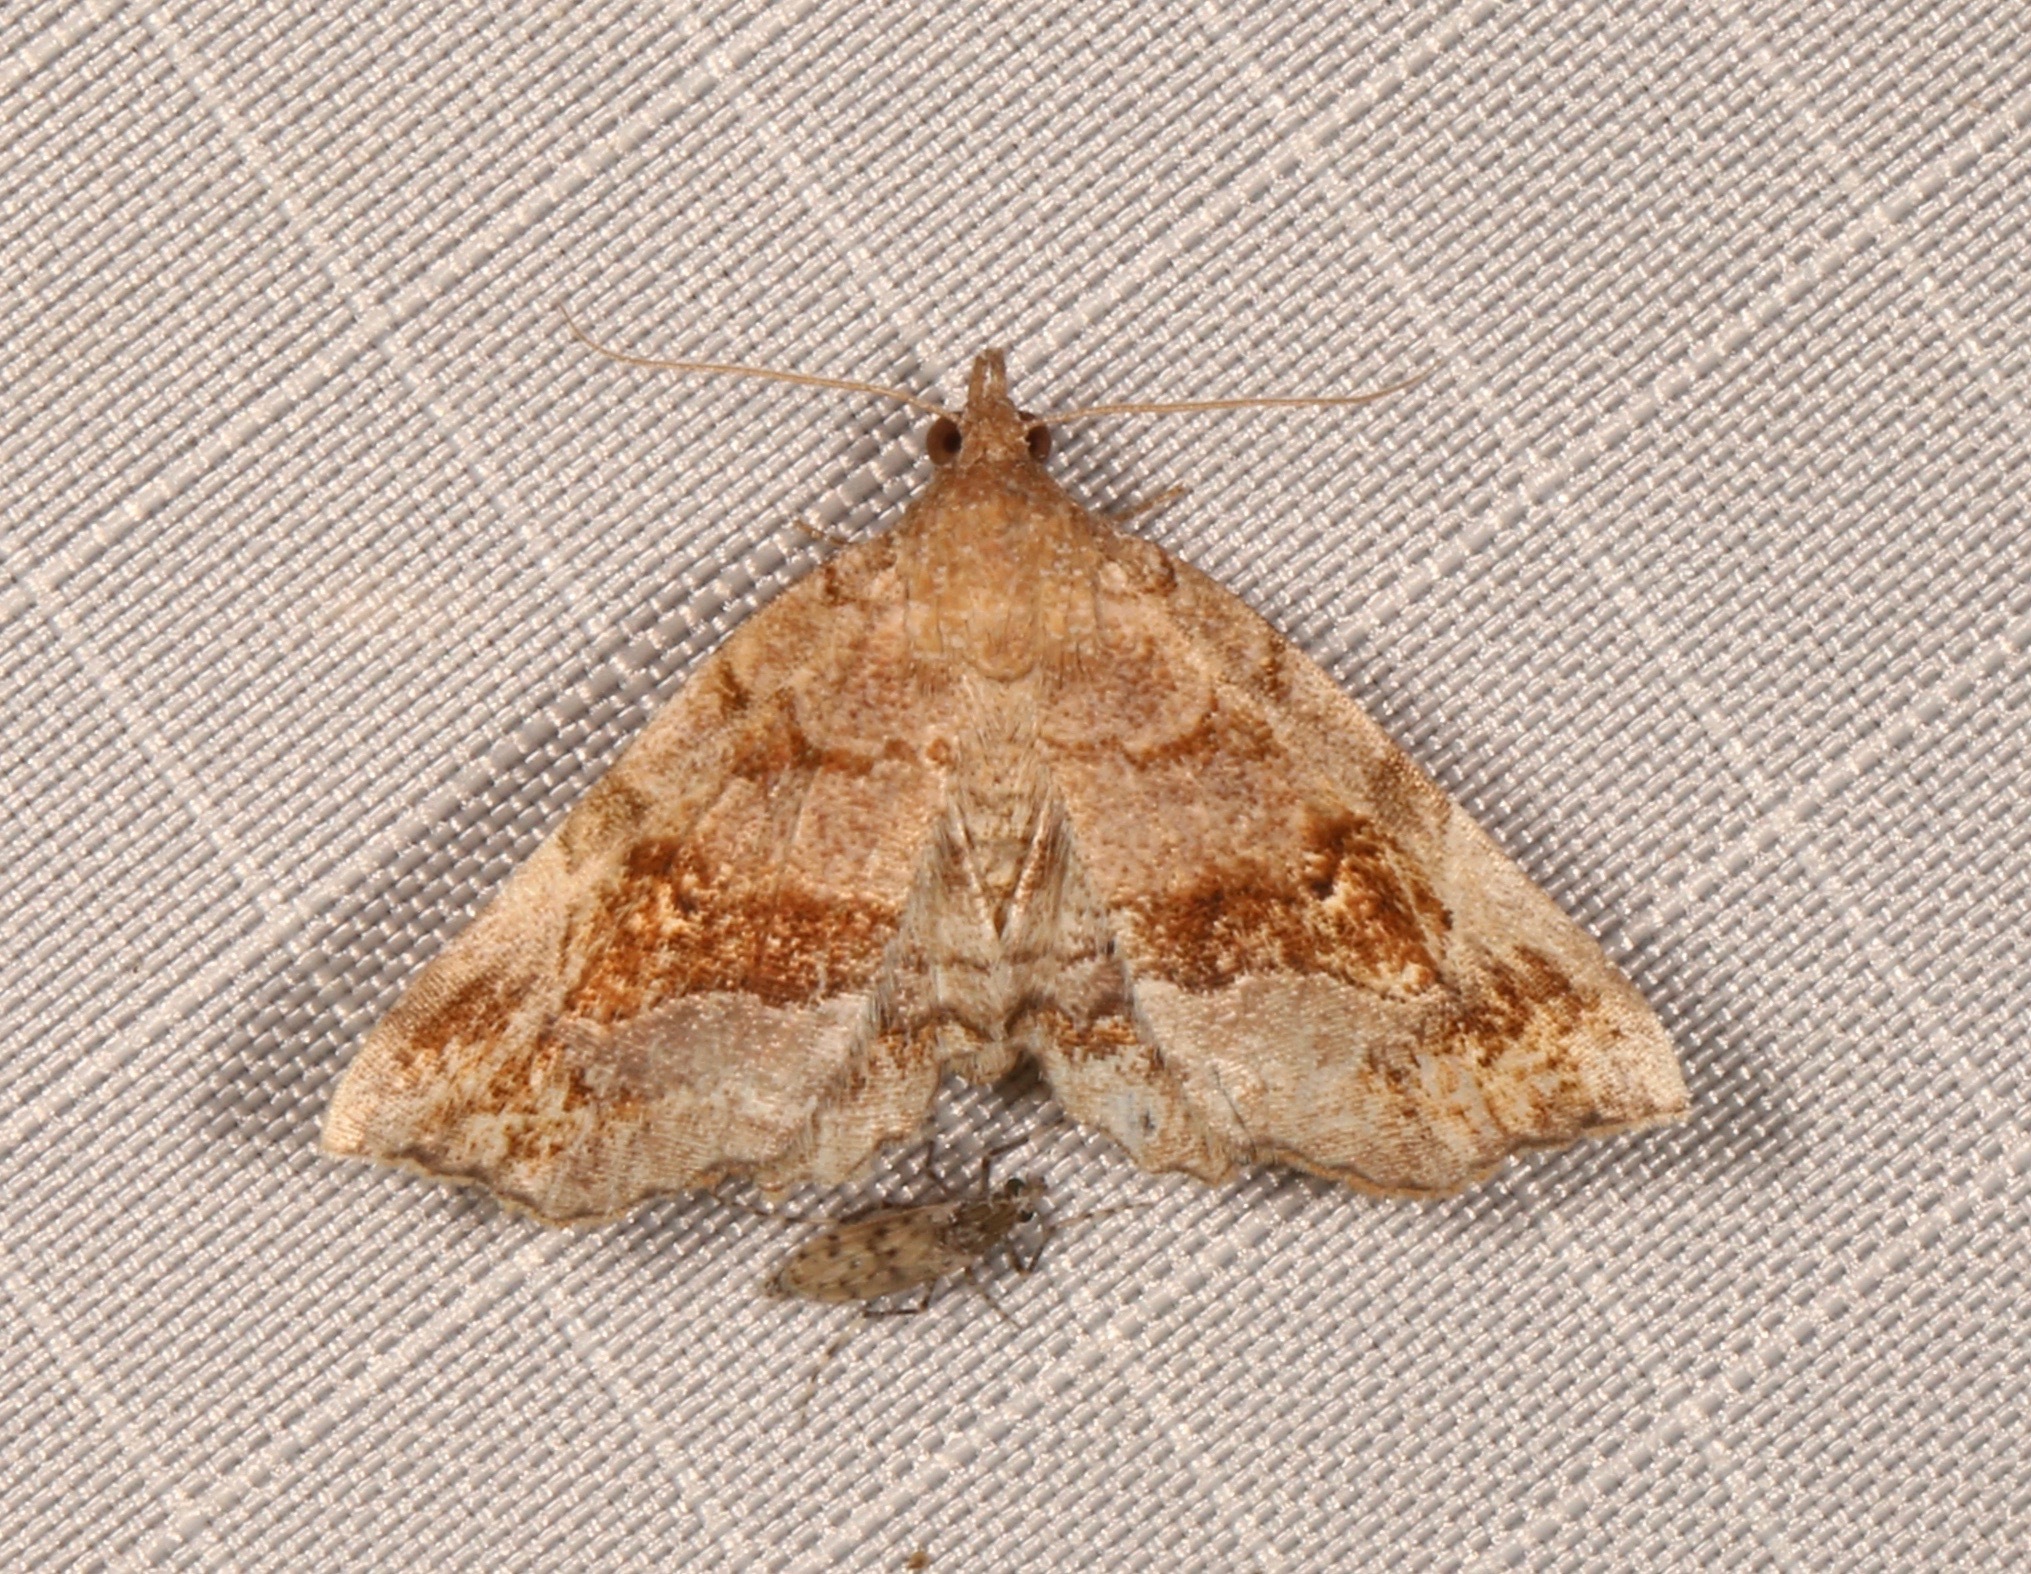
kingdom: Animalia
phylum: Arthropoda
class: Insecta
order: Lepidoptera
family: Erebidae
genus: Pangrapta
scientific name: Pangrapta decoralis
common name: Decorated owlet
